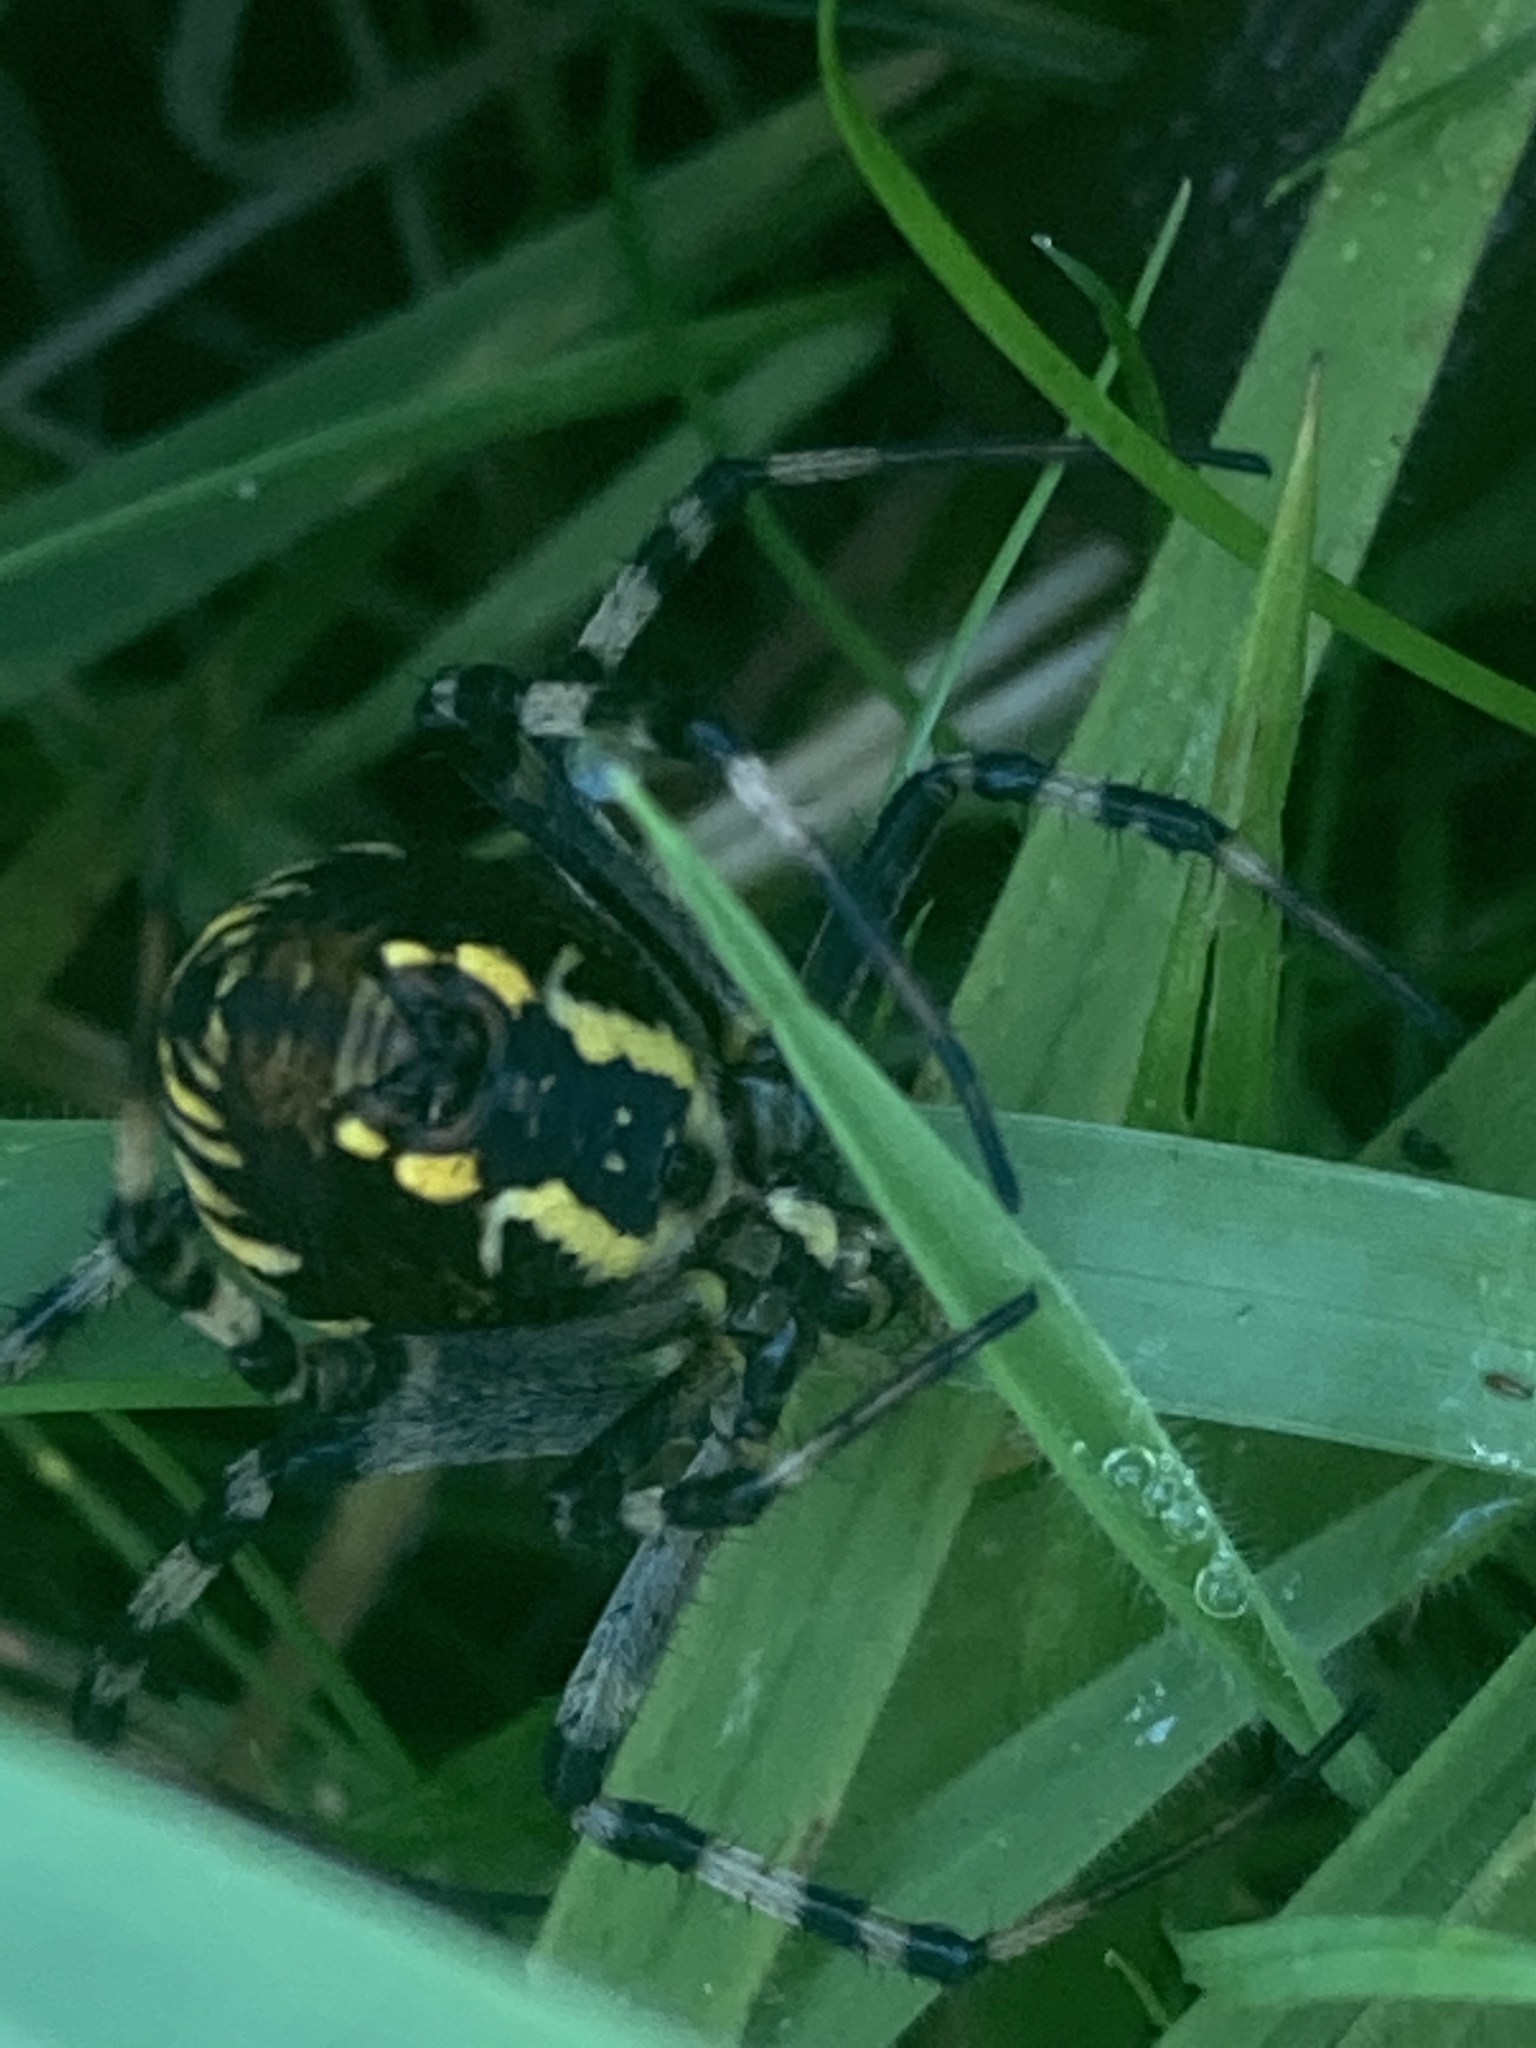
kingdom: Animalia
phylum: Arthropoda
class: Arachnida
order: Araneae
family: Araneidae
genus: Argiope
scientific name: Argiope bruennichi
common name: Wasp spider
